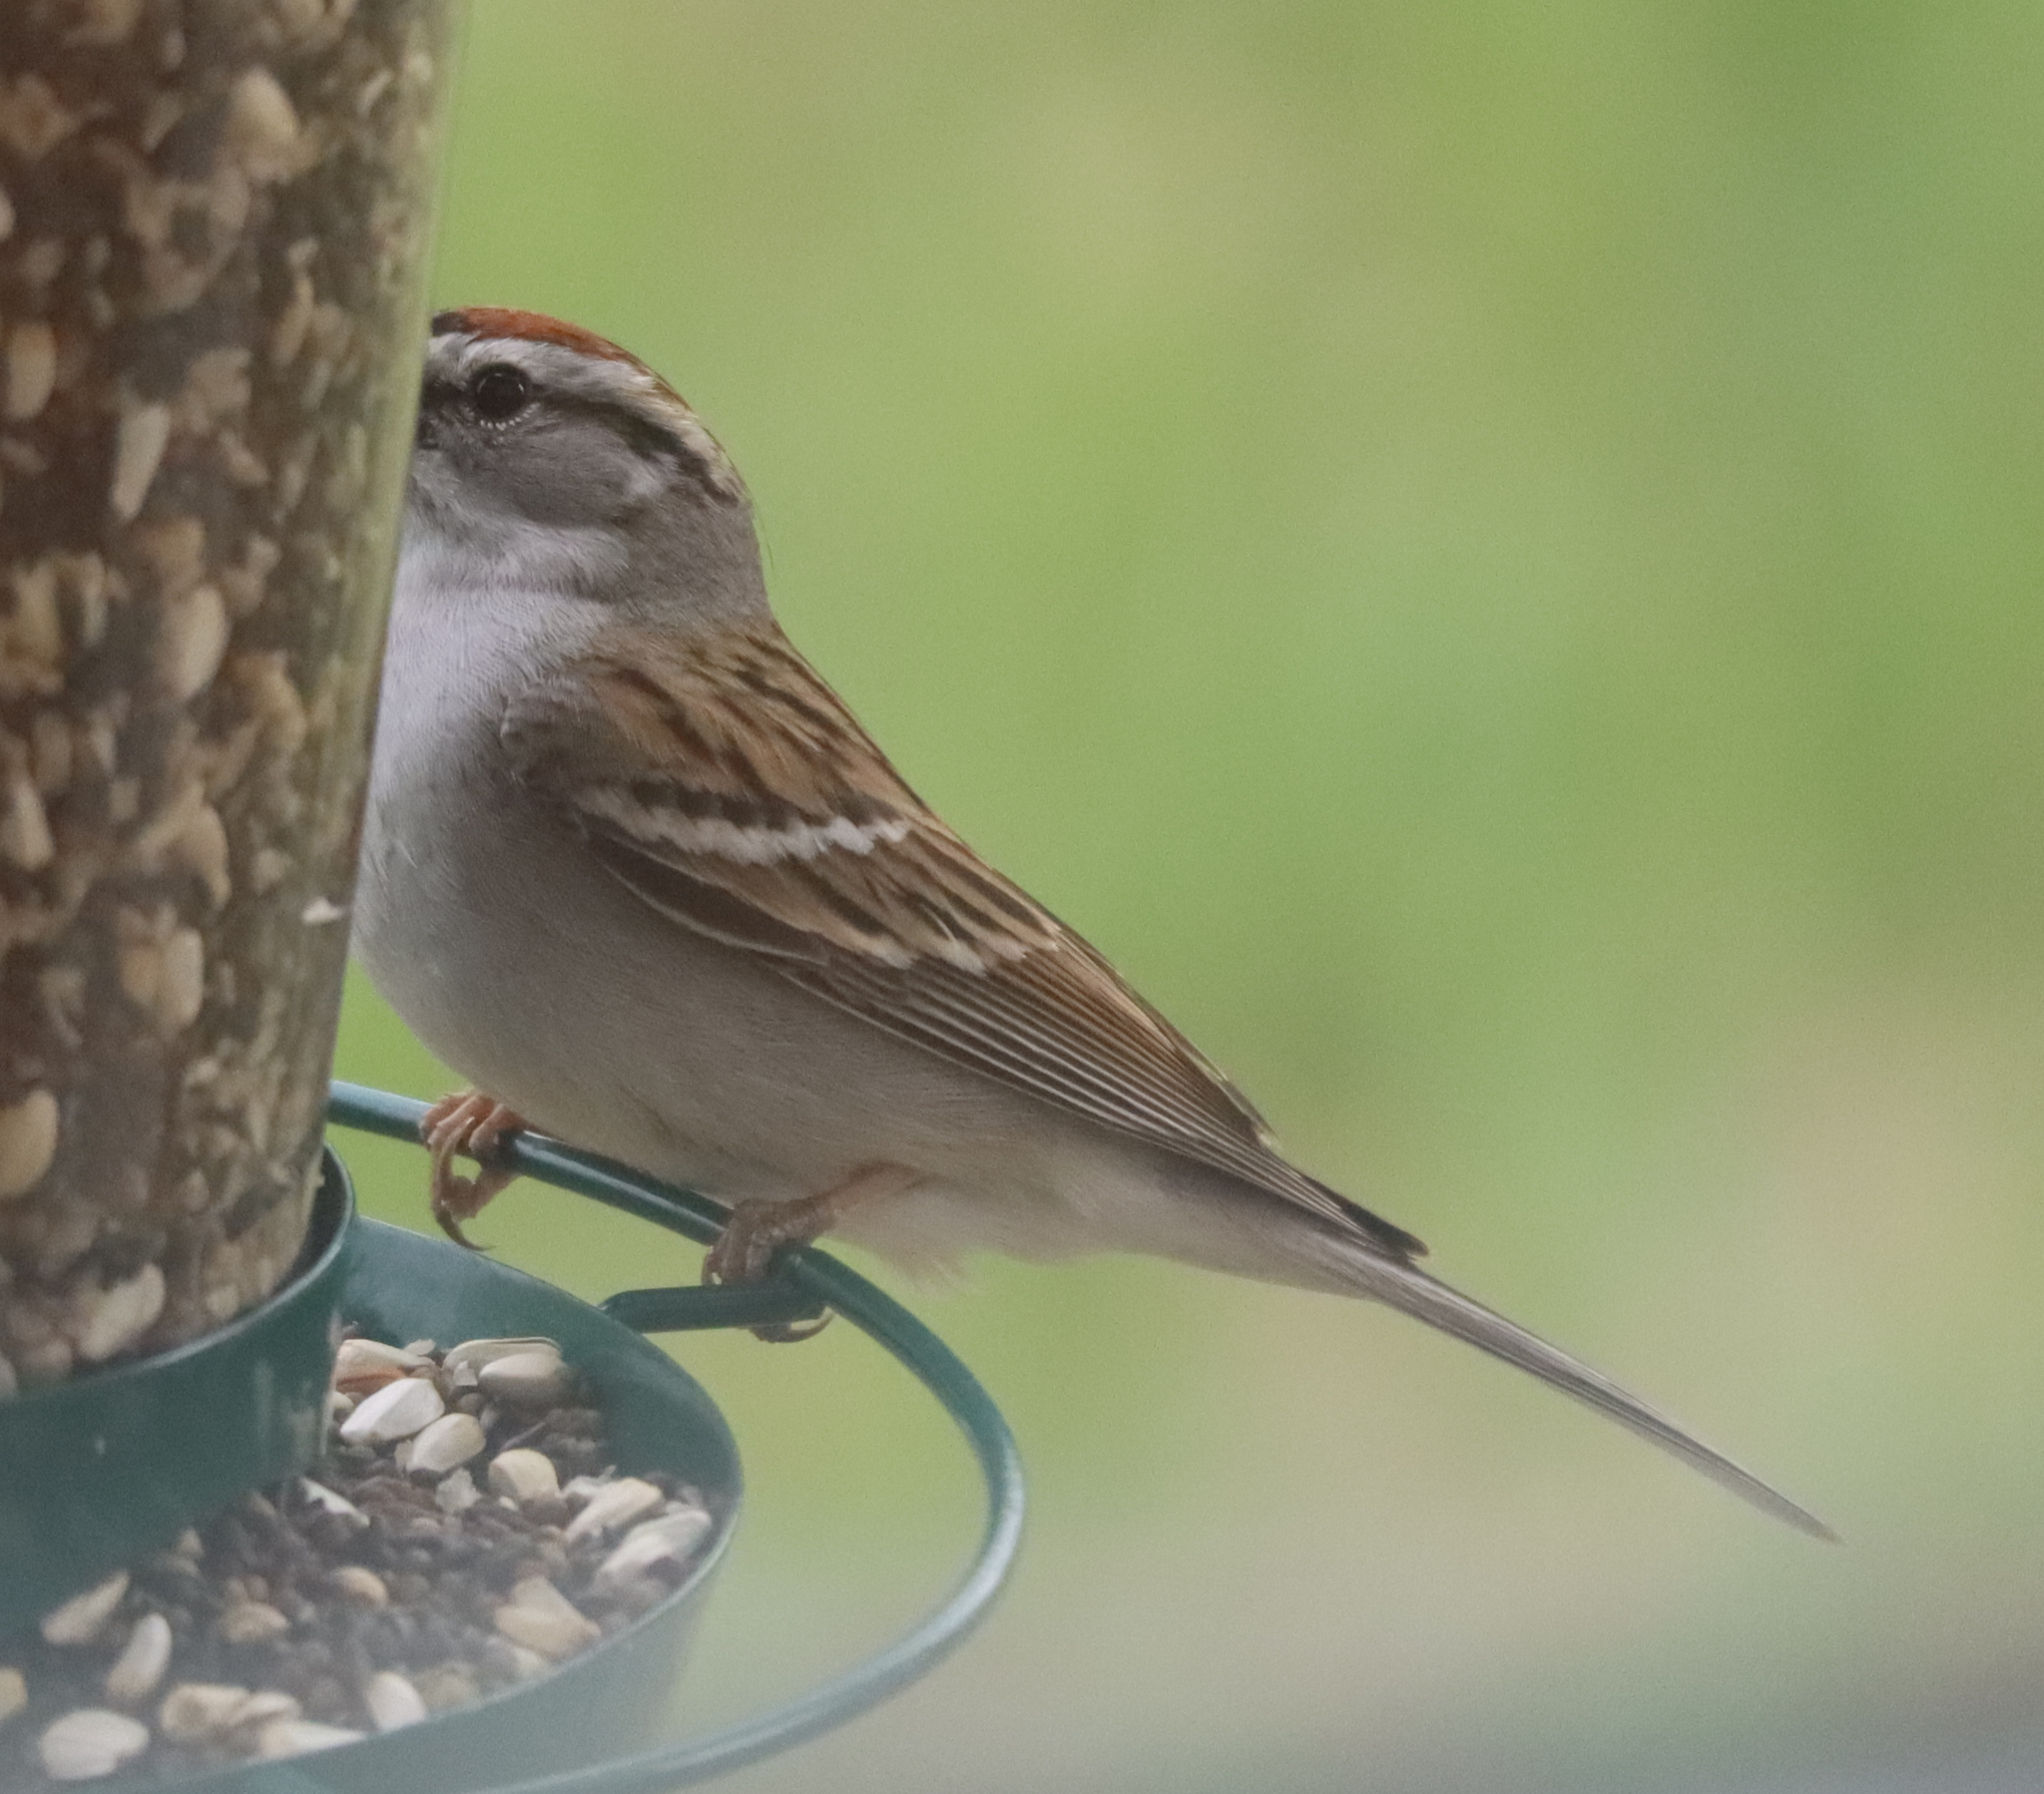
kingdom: Animalia
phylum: Chordata
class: Aves
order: Passeriformes
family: Passerellidae
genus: Spizella
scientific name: Spizella passerina
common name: Chipping sparrow
